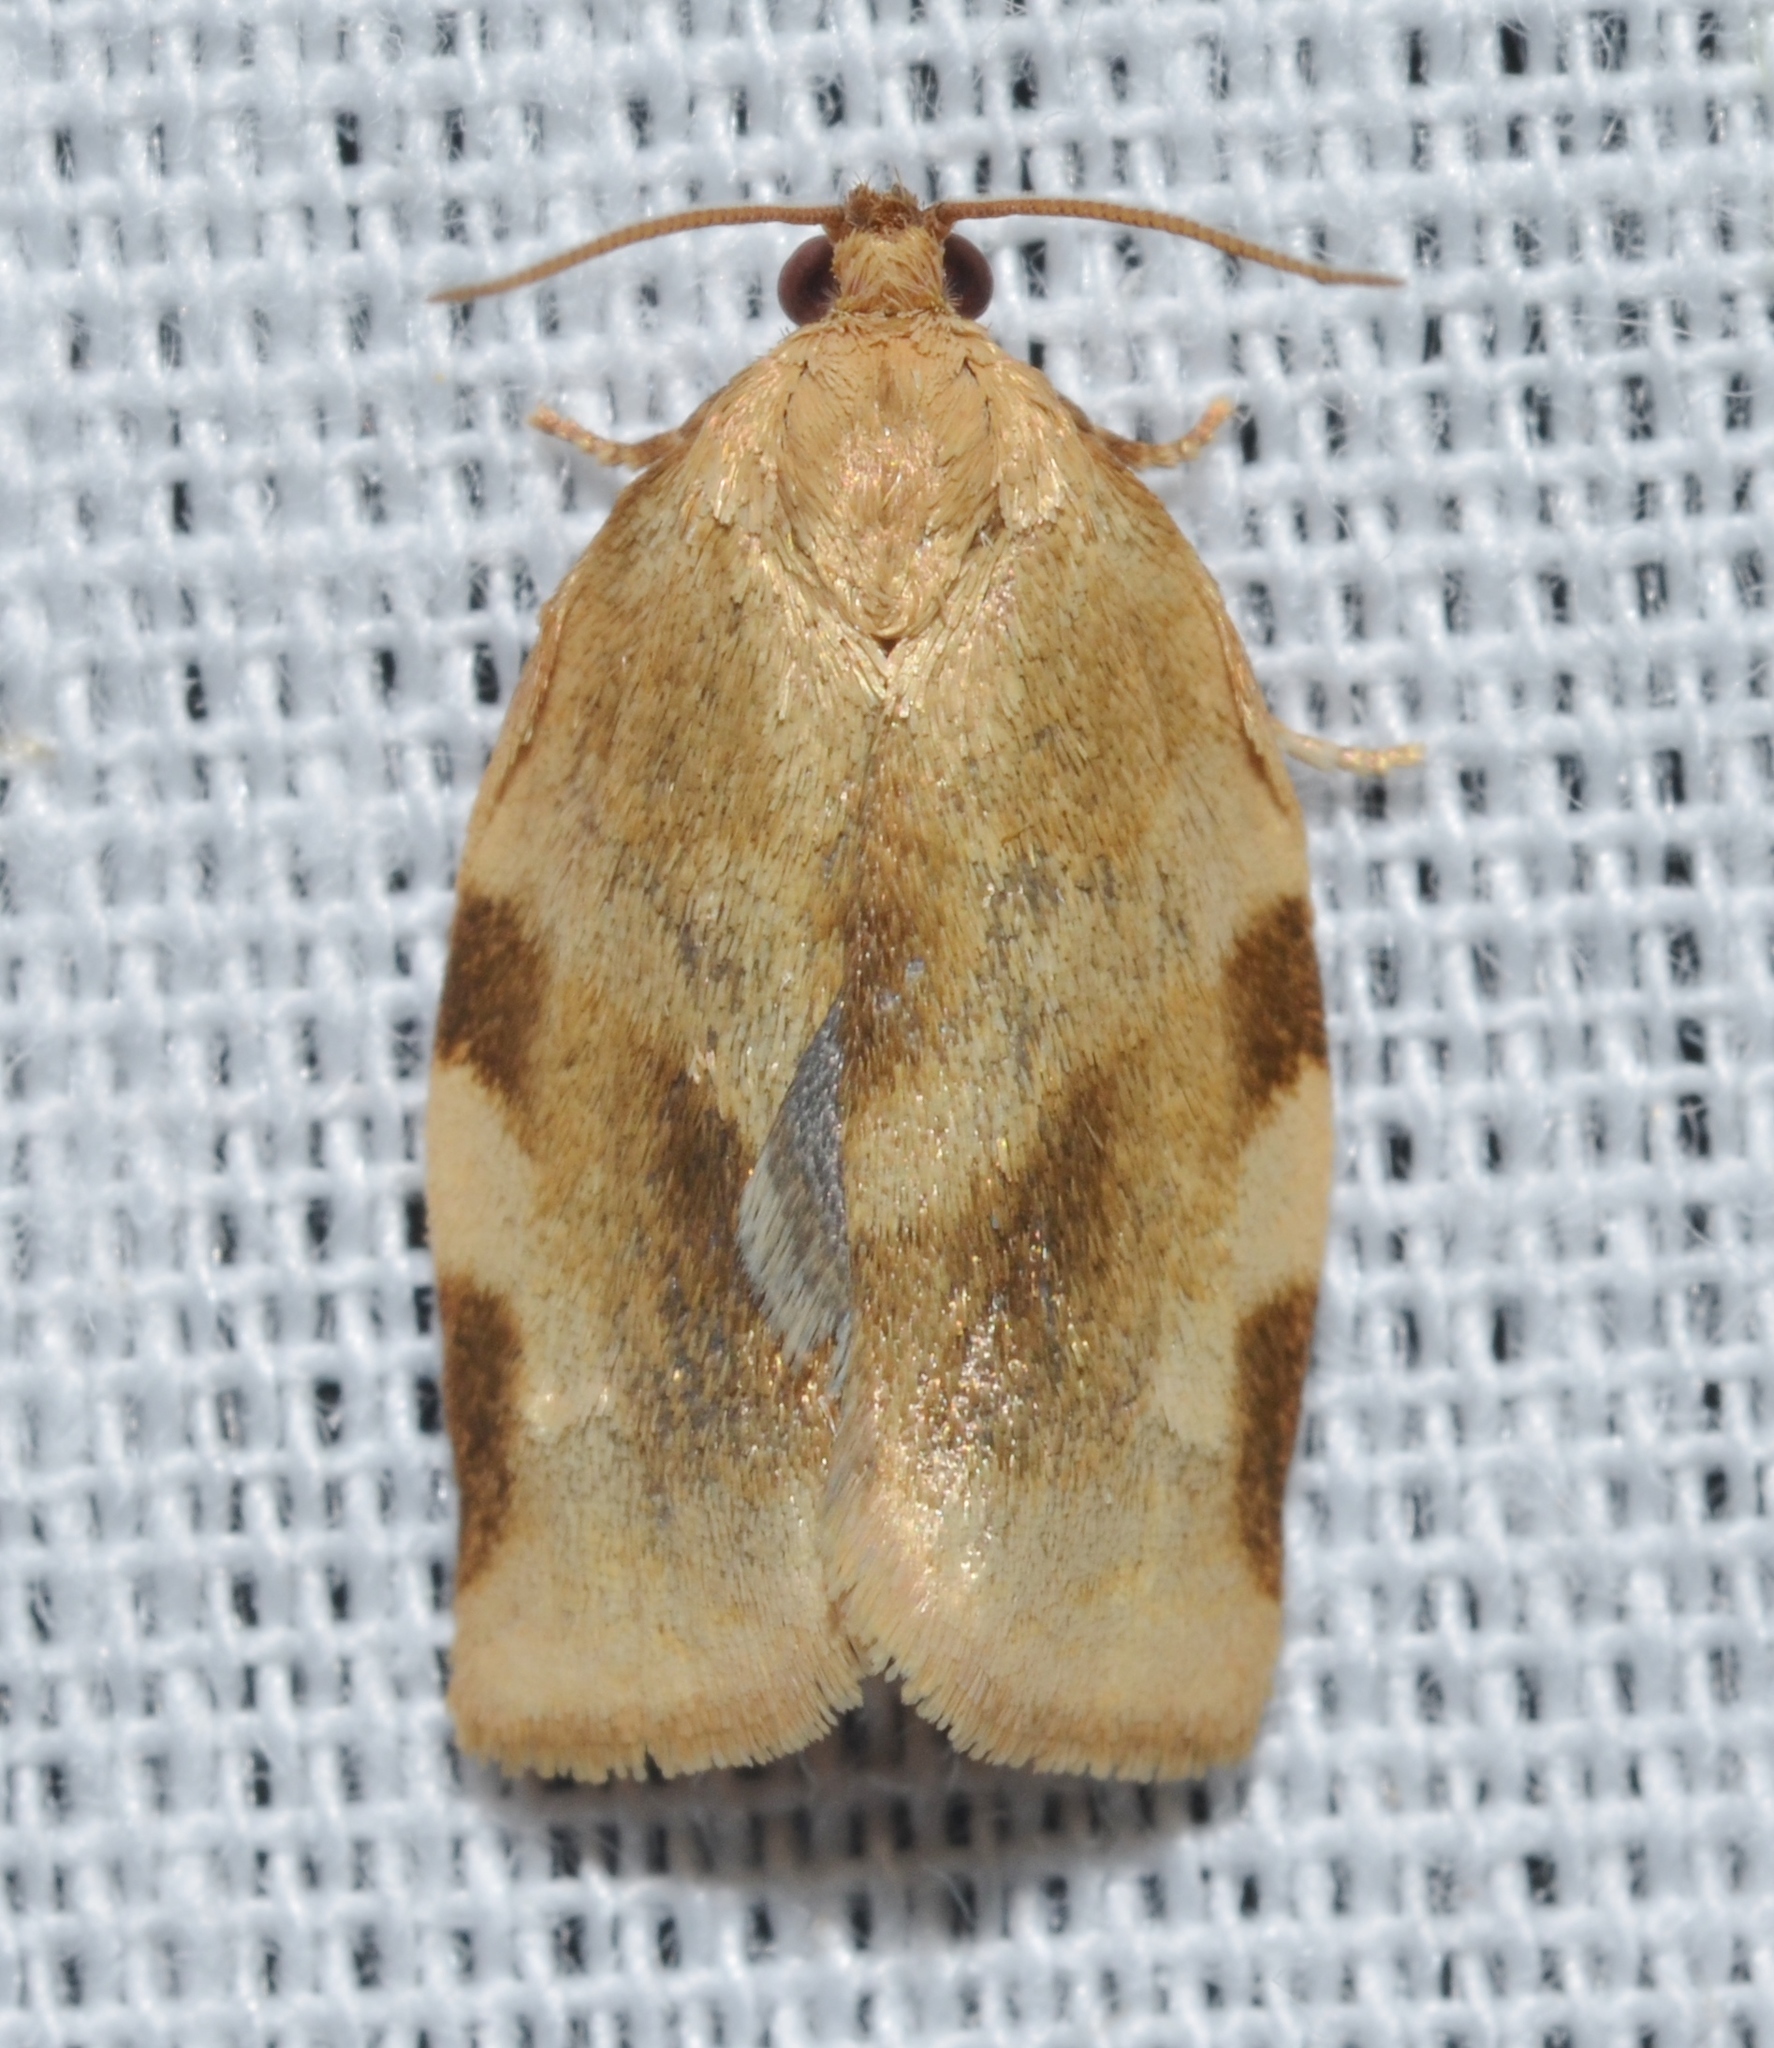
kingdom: Animalia
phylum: Arthropoda
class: Insecta
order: Lepidoptera
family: Tortricidae
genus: Choristoneura
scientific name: Choristoneura fractivittana
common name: Broken-banded leafroller moth
